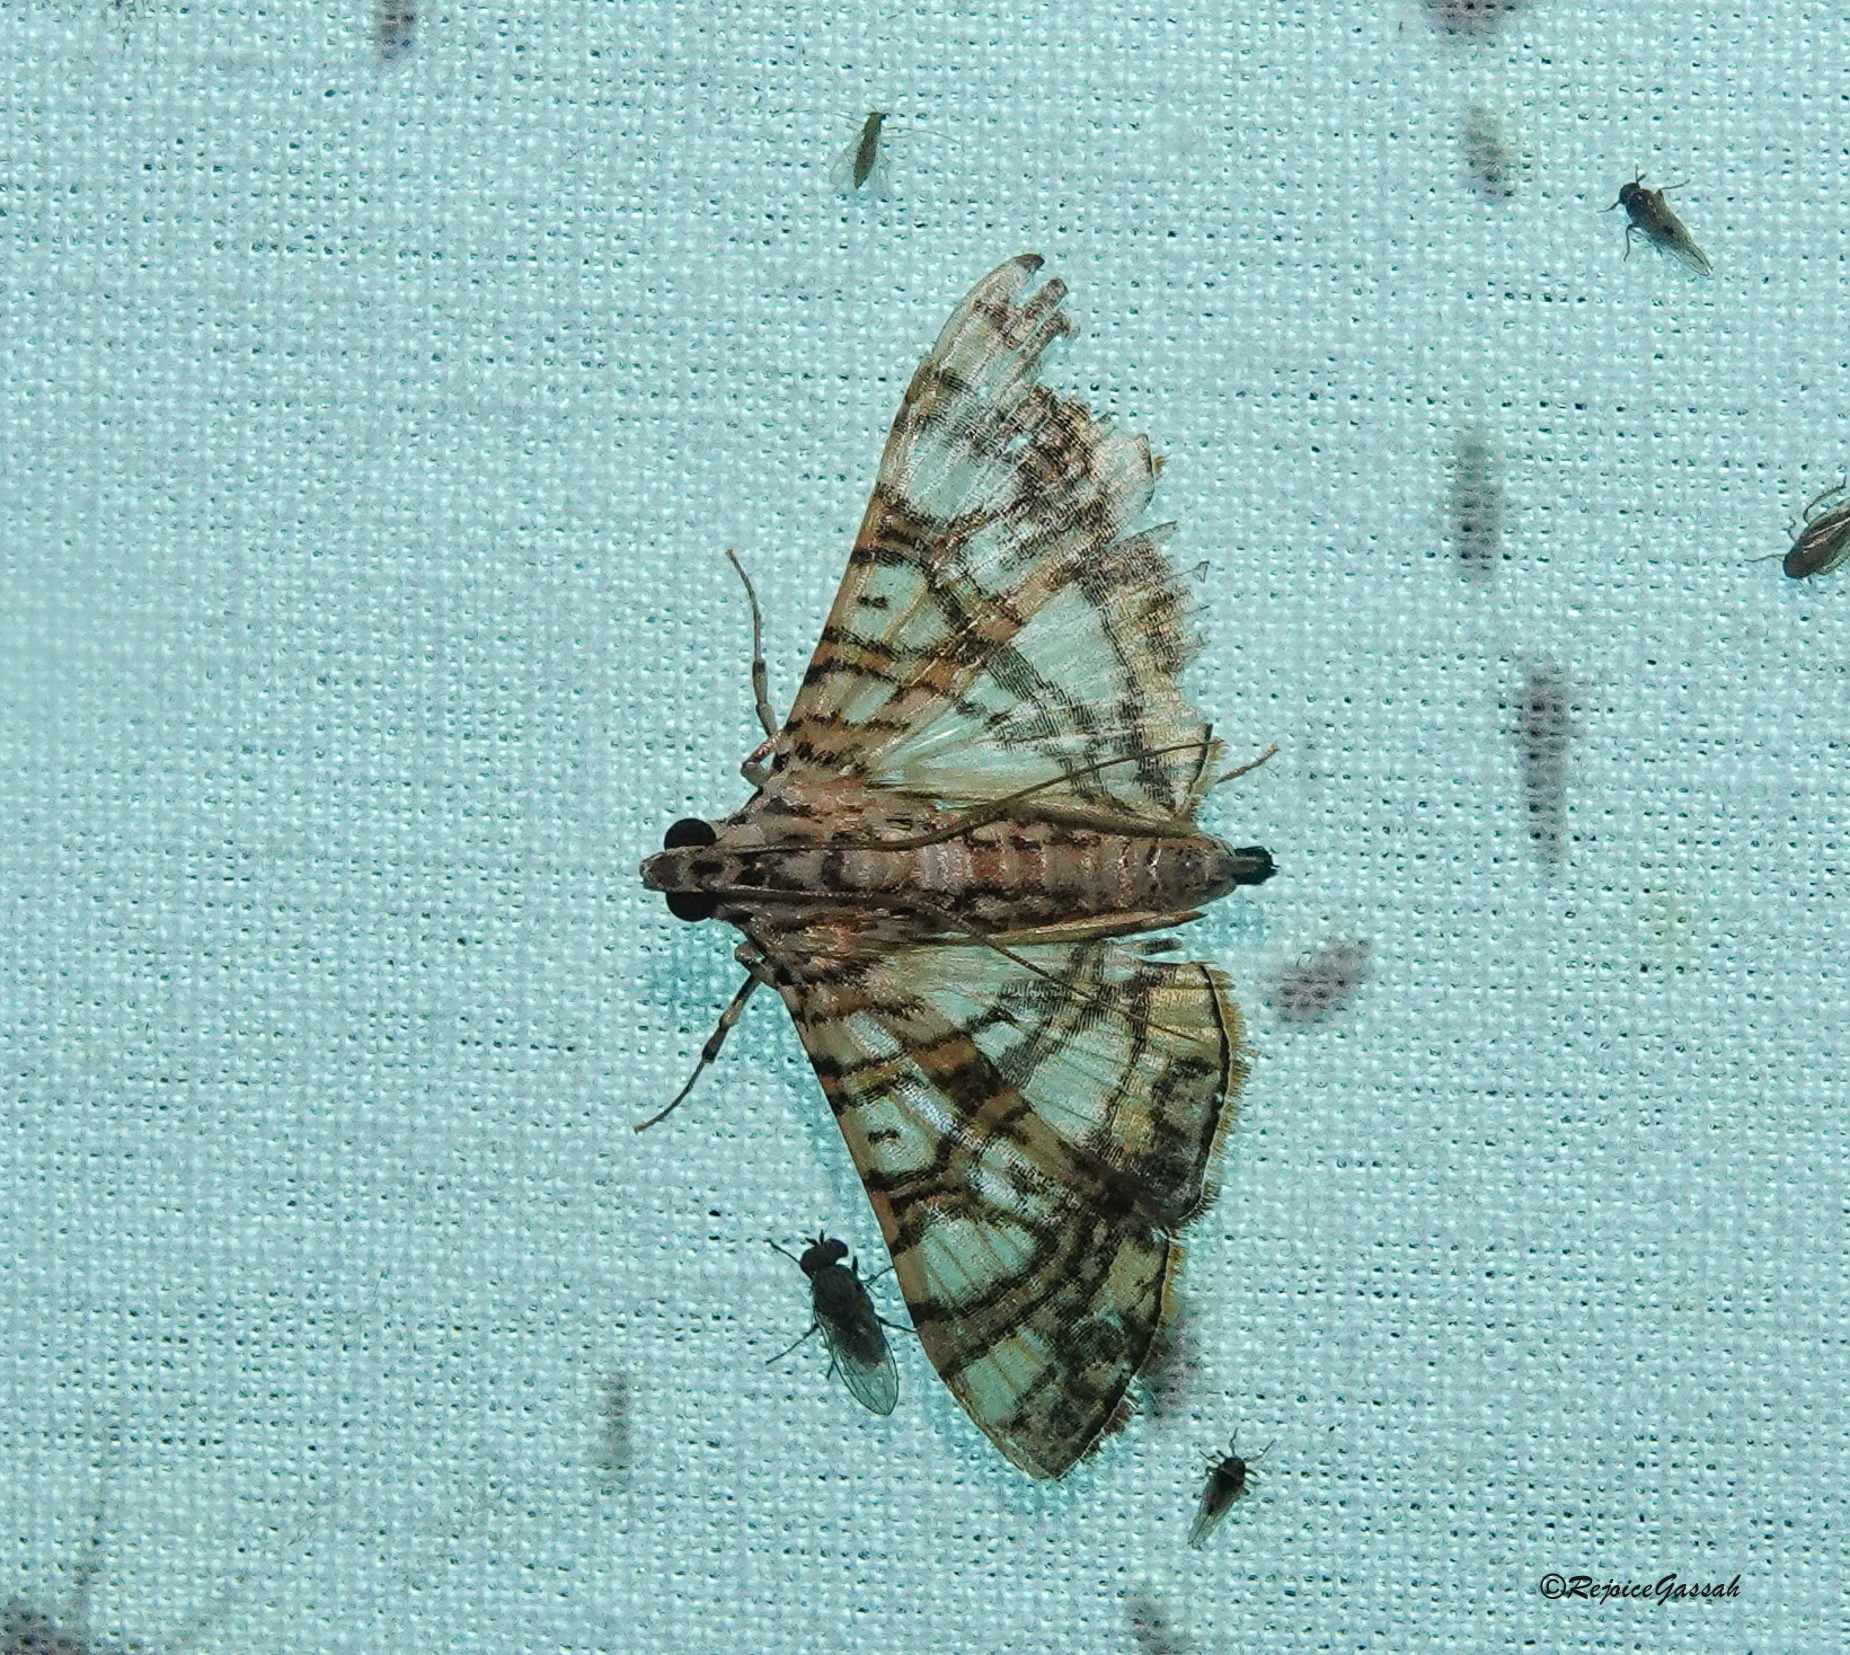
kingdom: Animalia
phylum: Arthropoda
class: Insecta
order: Lepidoptera
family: Crambidae
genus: Glyphodes
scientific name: Glyphodes caesalis
